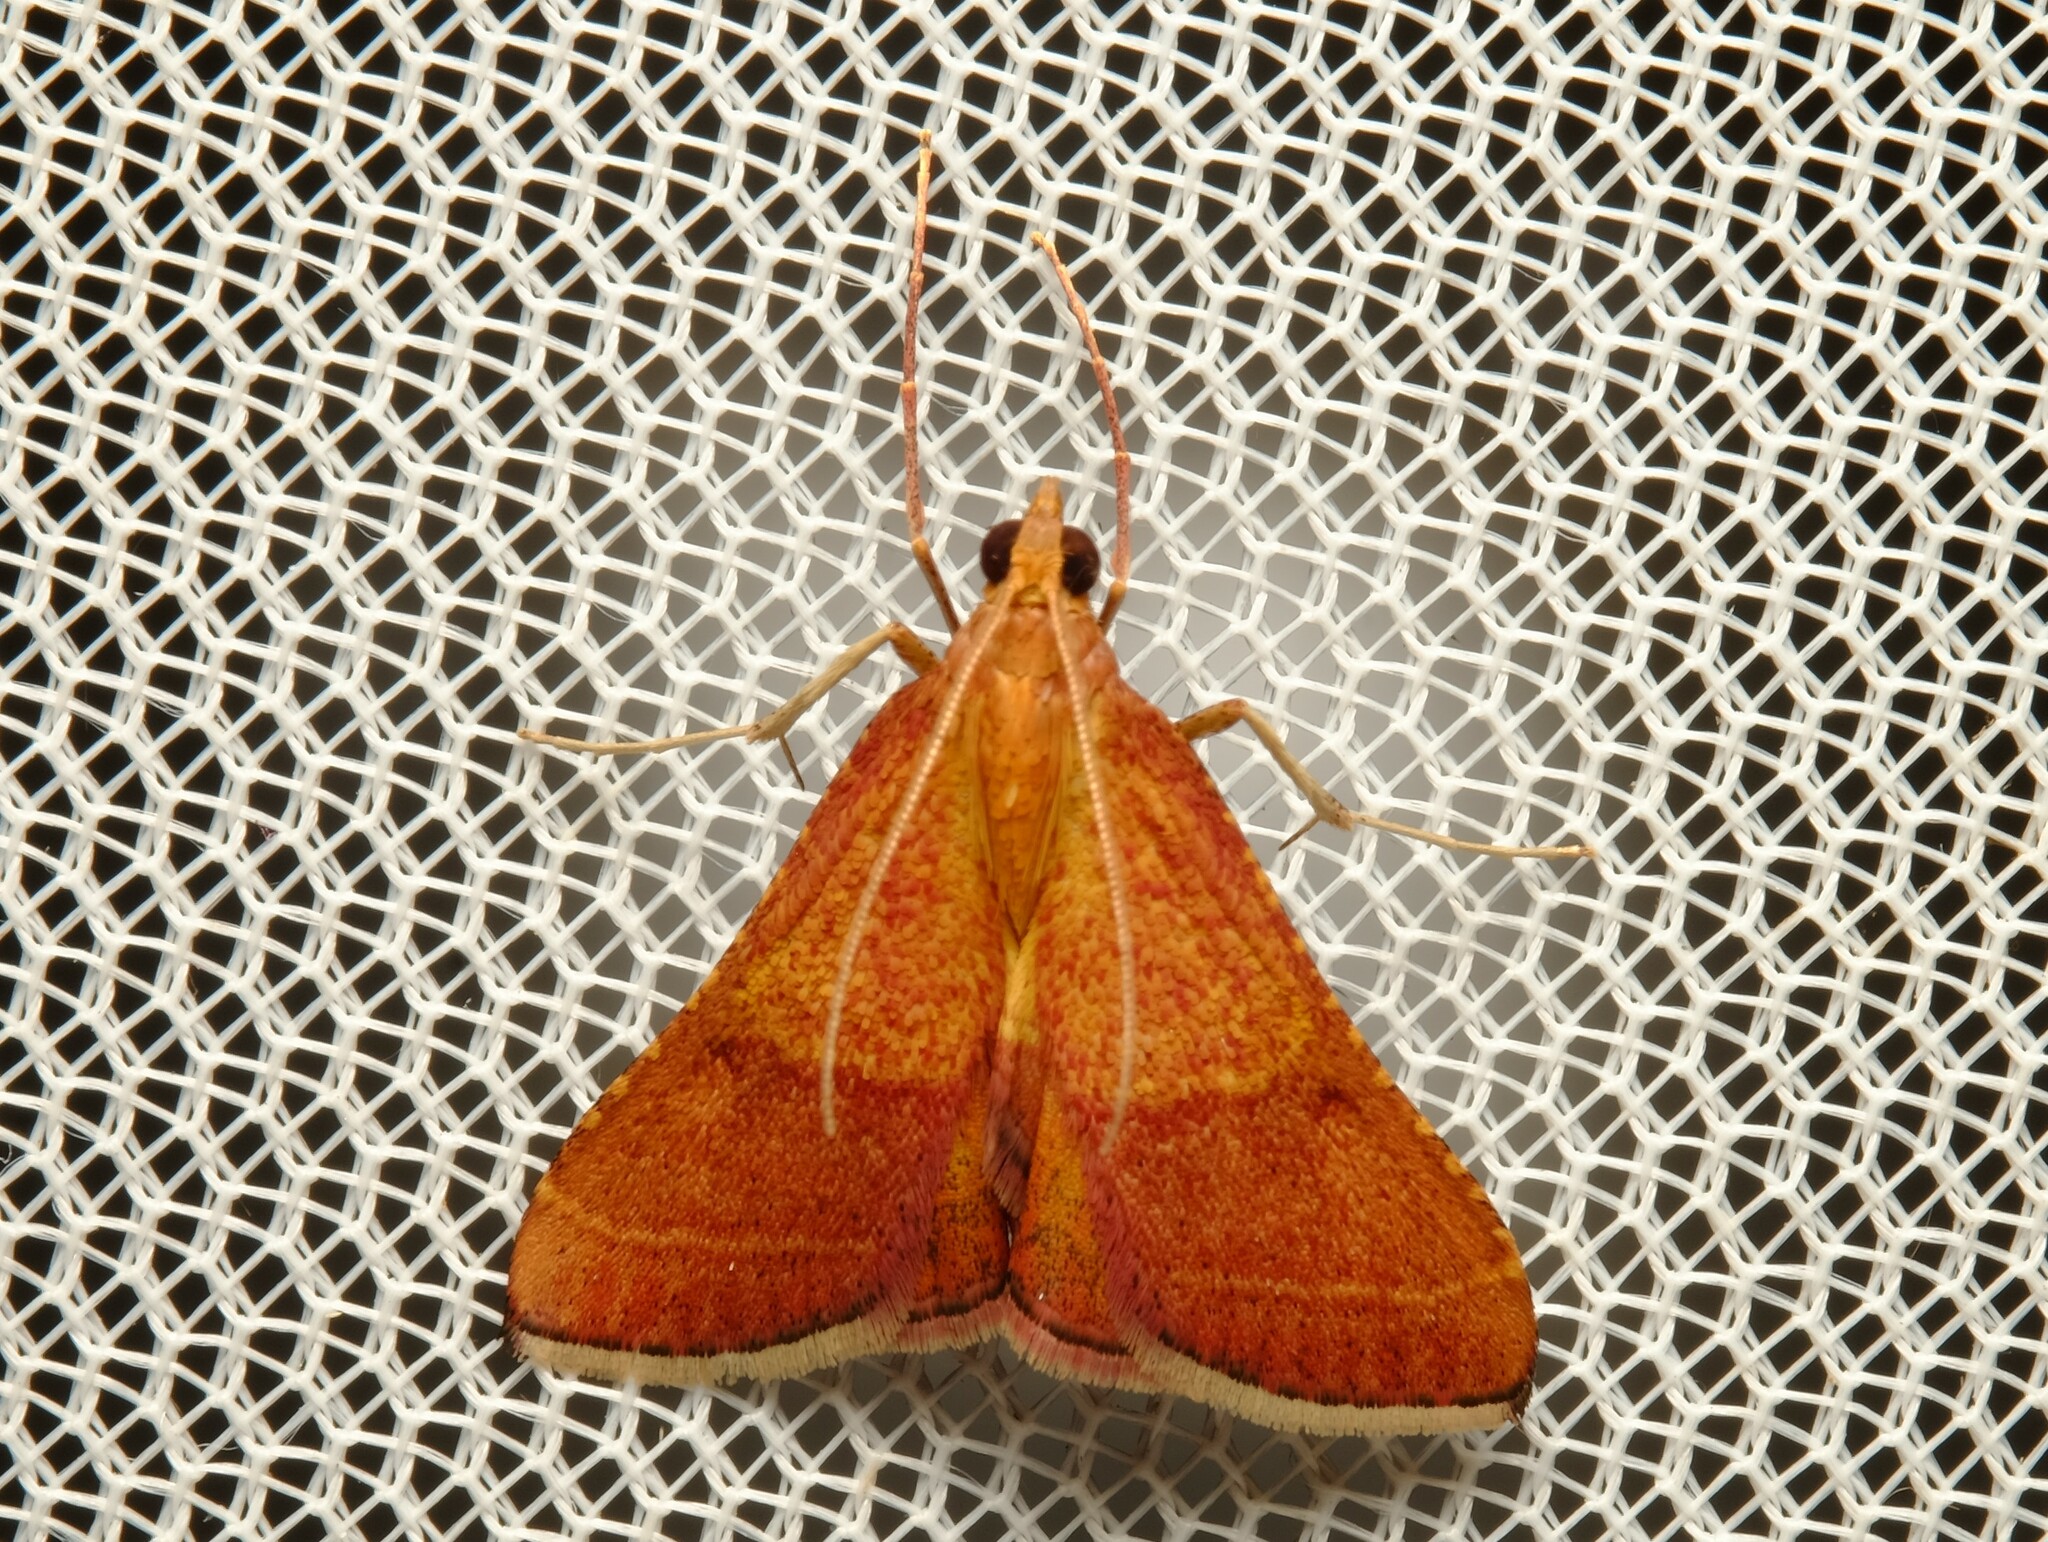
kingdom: Animalia
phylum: Arthropoda
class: Insecta
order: Lepidoptera
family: Pyralidae
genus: Endotricha
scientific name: Endotricha pyrosalis
